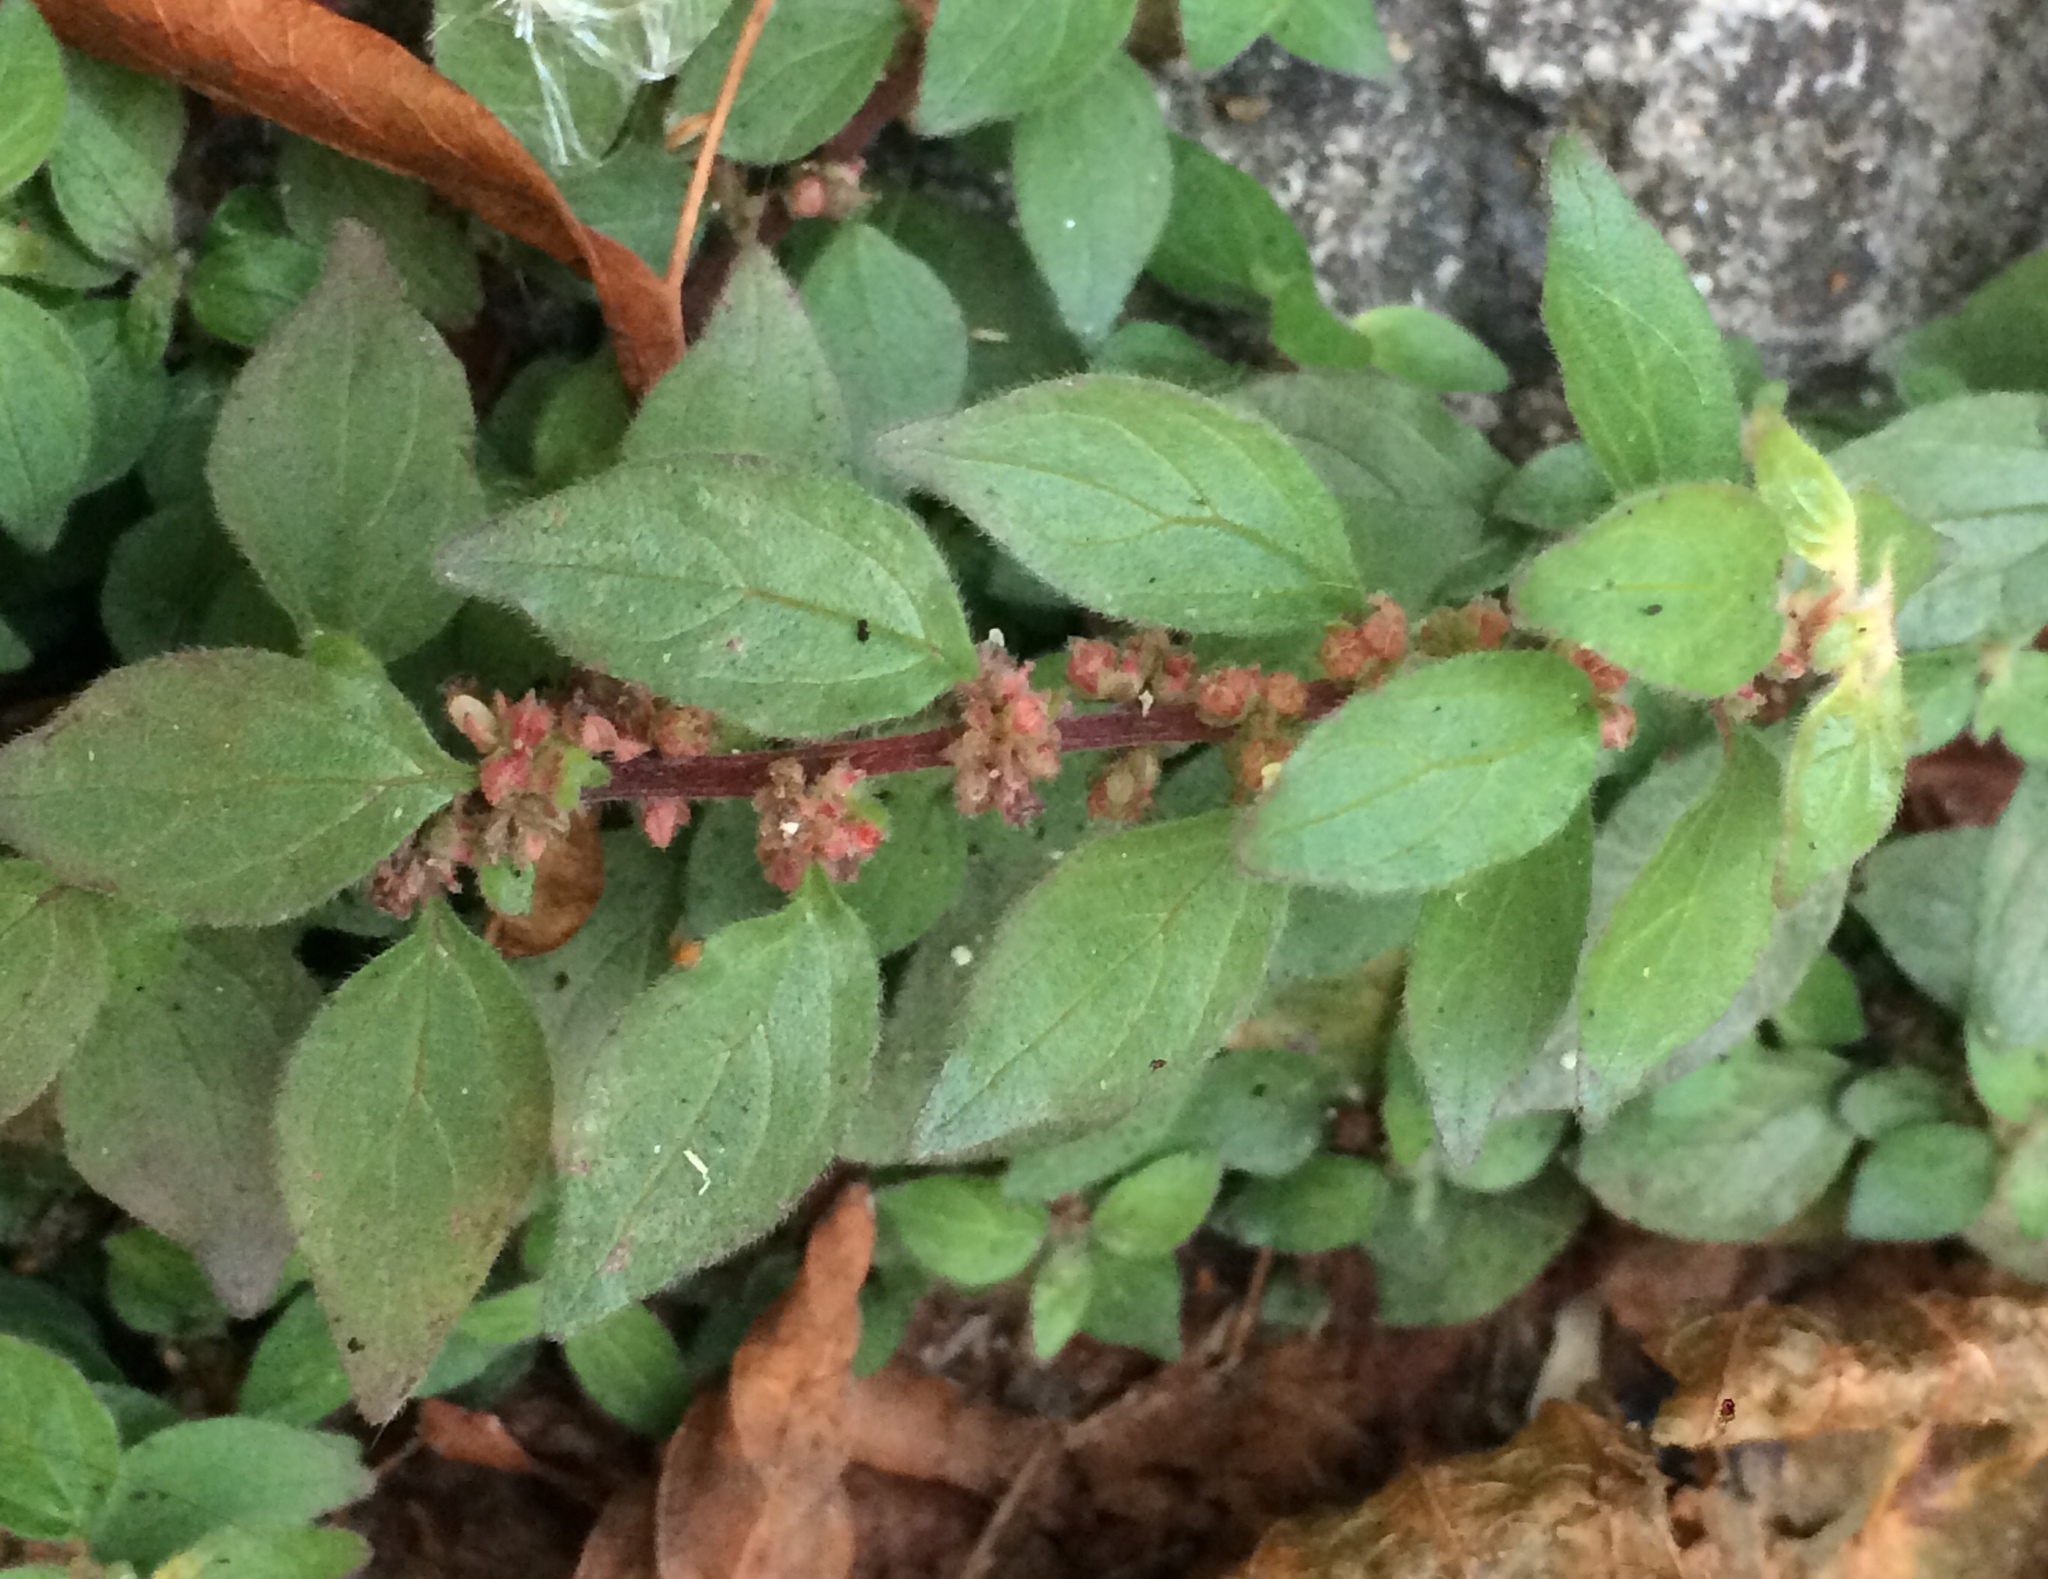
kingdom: Plantae
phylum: Tracheophyta
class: Magnoliopsida
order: Rosales
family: Urticaceae
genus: Parietaria
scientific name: Parietaria judaica
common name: Pellitory-of-the-wall
